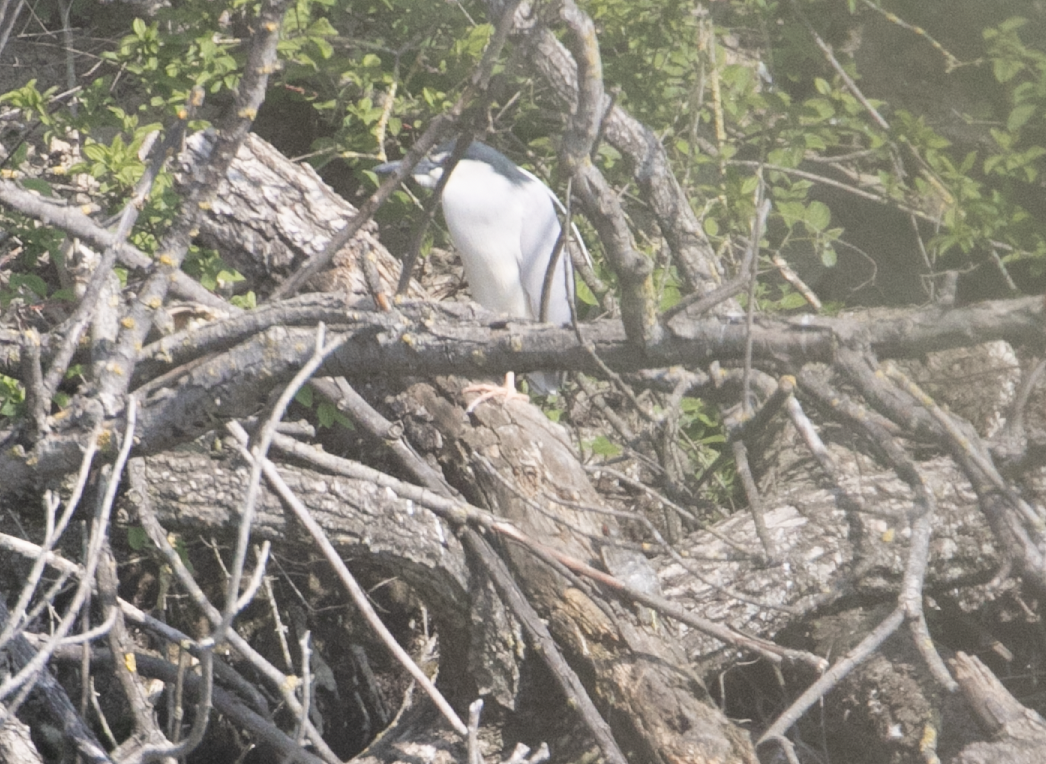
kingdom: Animalia
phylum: Chordata
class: Aves
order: Pelecaniformes
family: Ardeidae
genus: Nycticorax
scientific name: Nycticorax nycticorax
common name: Black-crowned night heron
